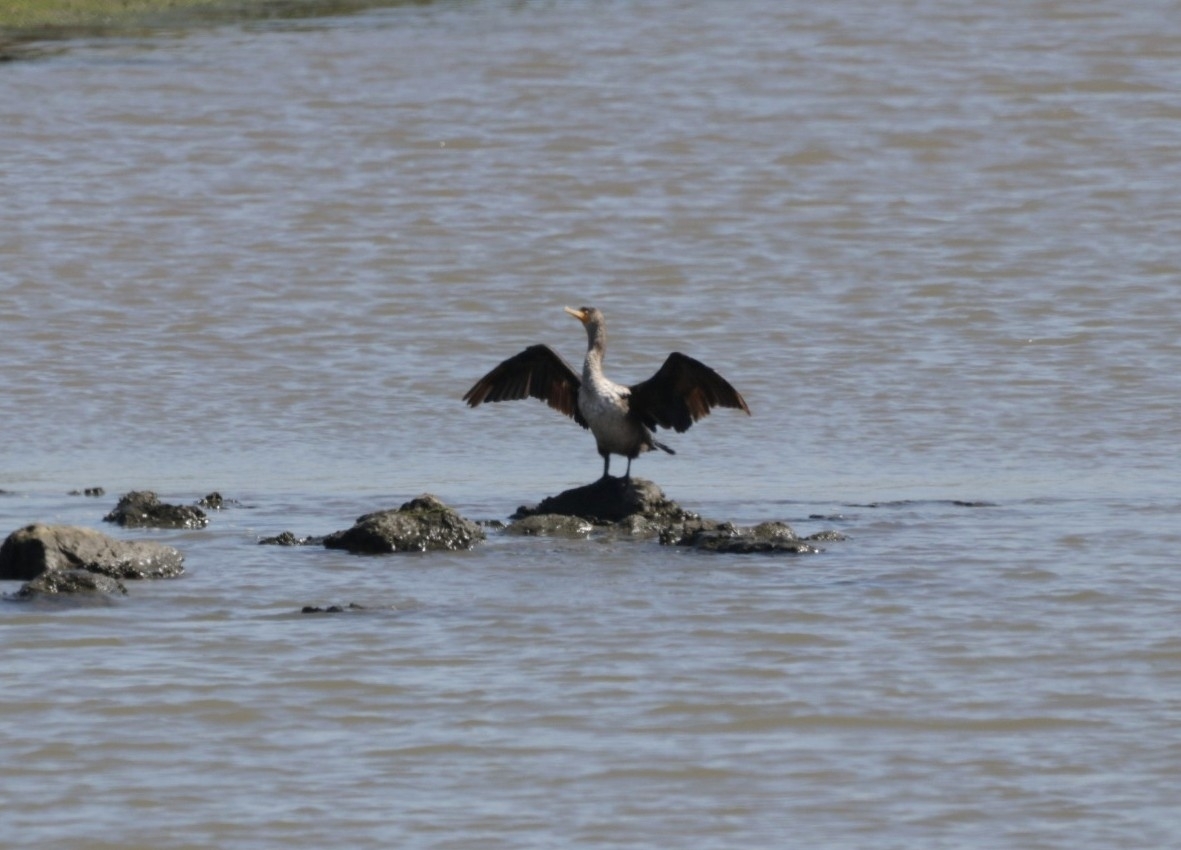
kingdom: Animalia
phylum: Chordata
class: Aves
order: Suliformes
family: Phalacrocoracidae
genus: Phalacrocorax
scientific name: Phalacrocorax auritus
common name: Double-crested cormorant
